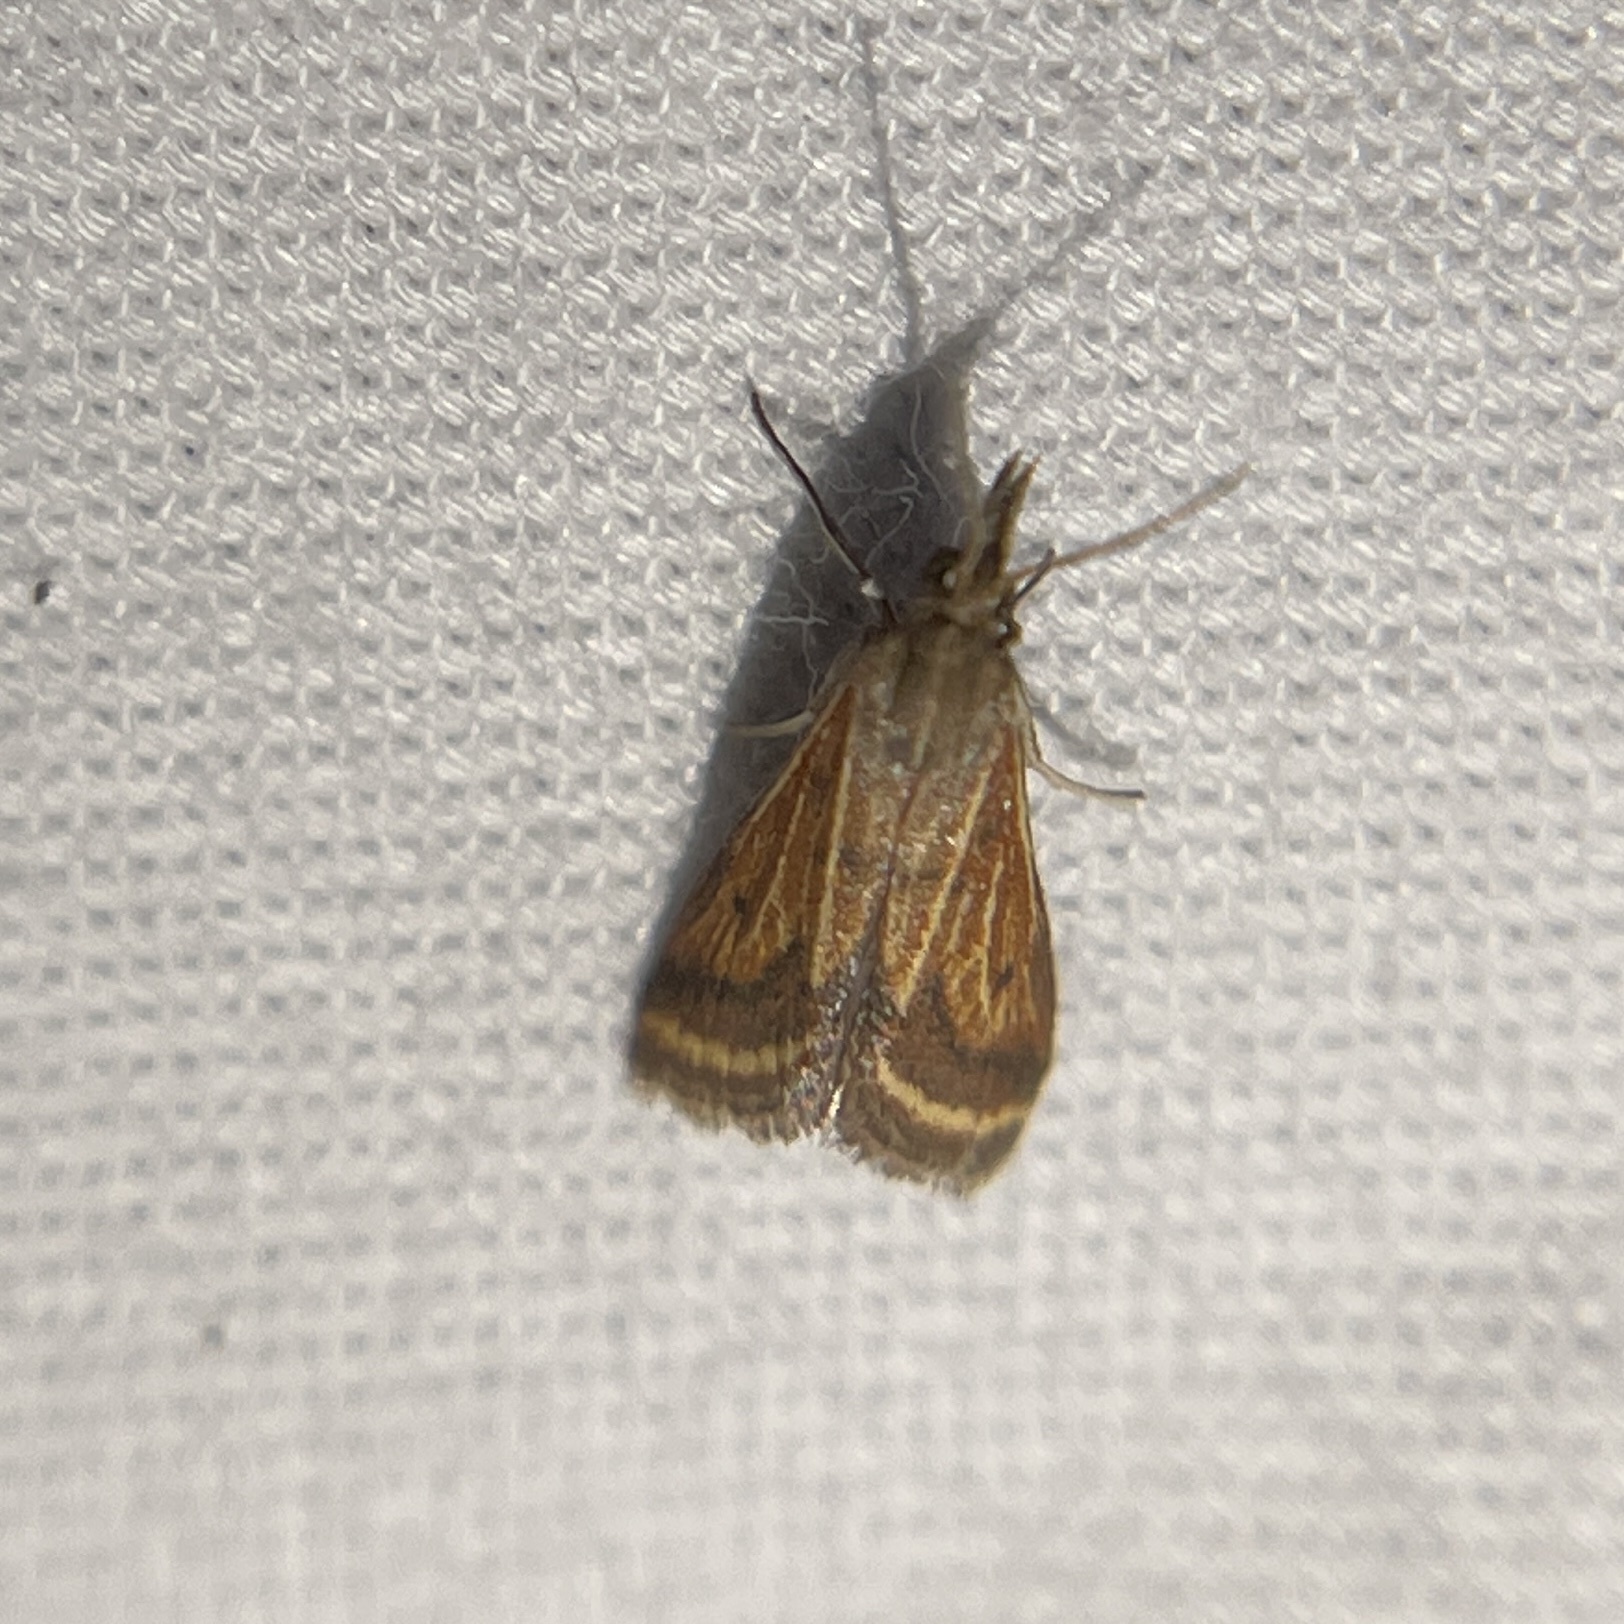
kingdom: Animalia
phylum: Arthropoda
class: Insecta
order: Lepidoptera
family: Crambidae
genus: Microtheoris
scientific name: Microtheoris ophionalis
